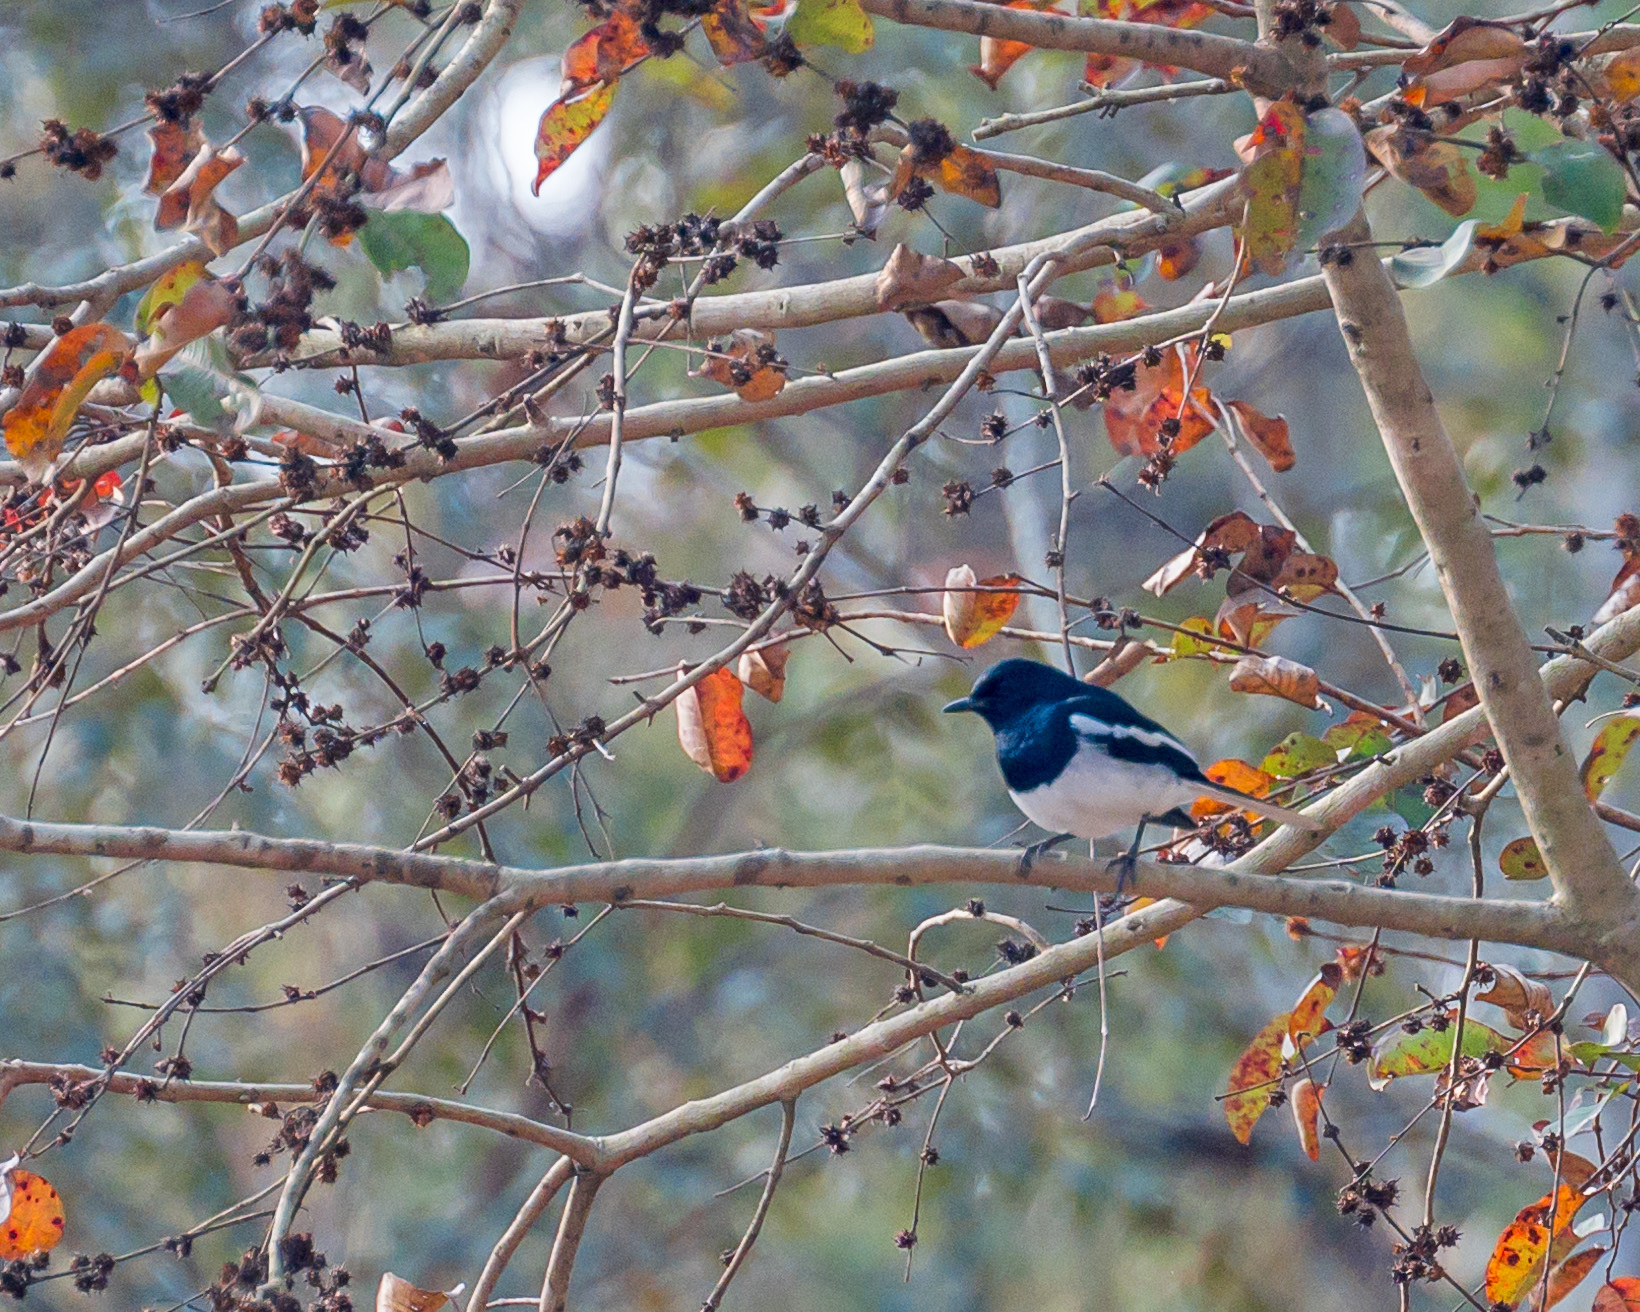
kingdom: Animalia
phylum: Chordata
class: Aves
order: Passeriformes
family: Muscicapidae
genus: Copsychus
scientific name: Copsychus saularis
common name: Oriental magpie-robin
